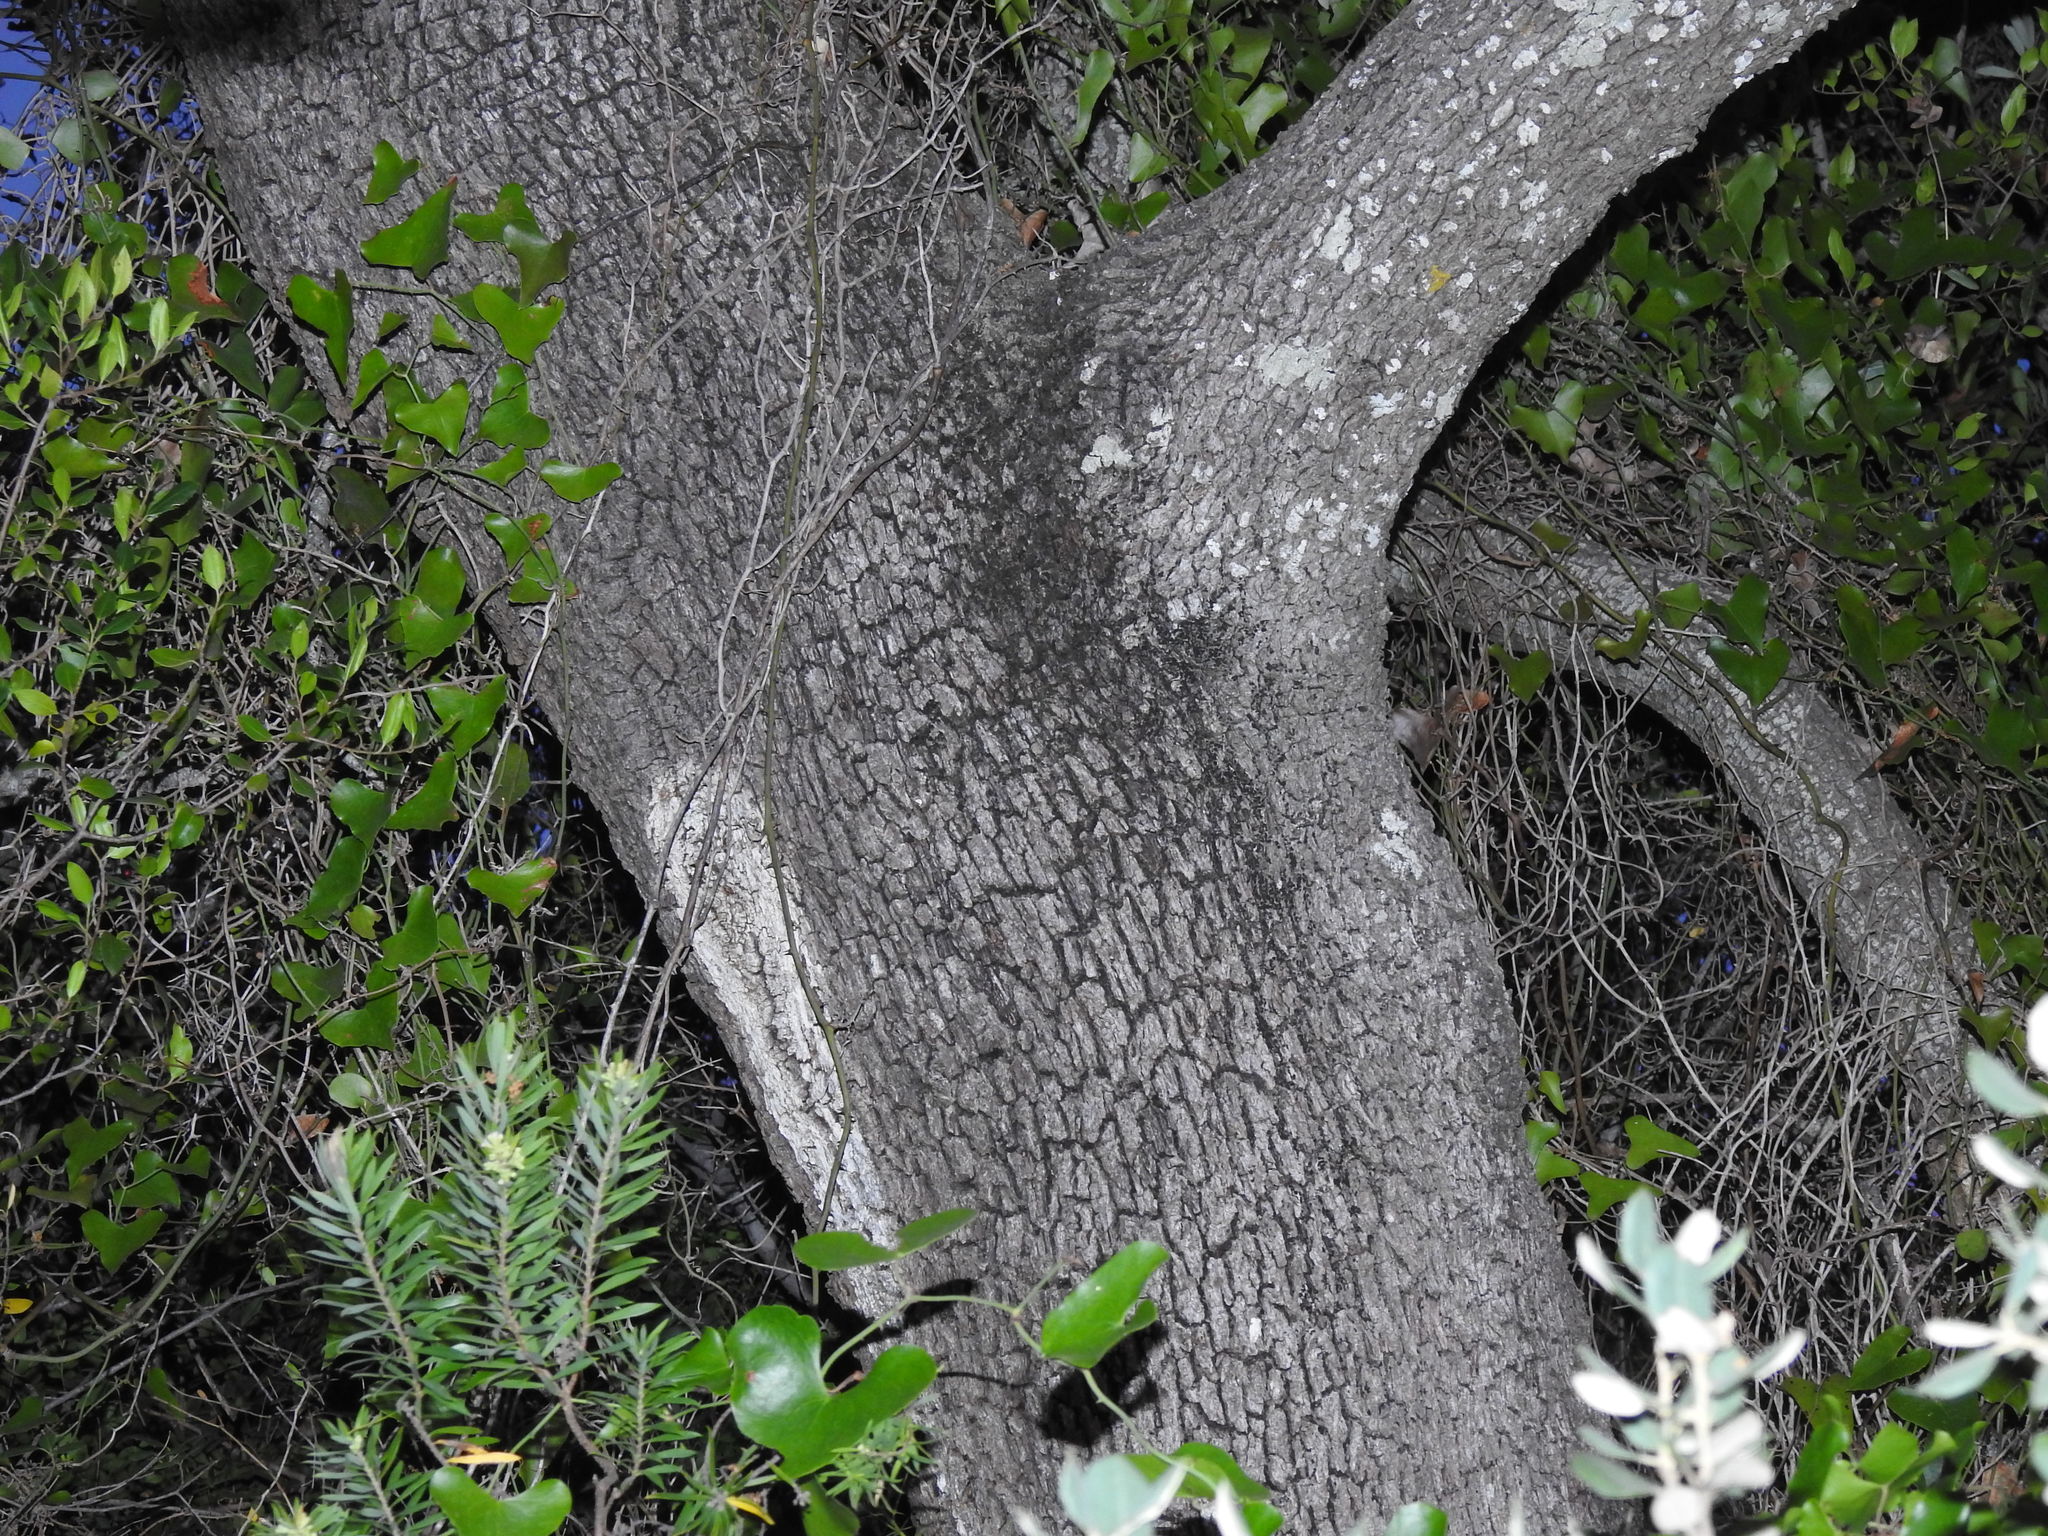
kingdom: Plantae
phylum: Tracheophyta
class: Magnoliopsida
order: Fagales
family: Fagaceae
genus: Quercus
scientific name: Quercus rotundifolia
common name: Holm oak
